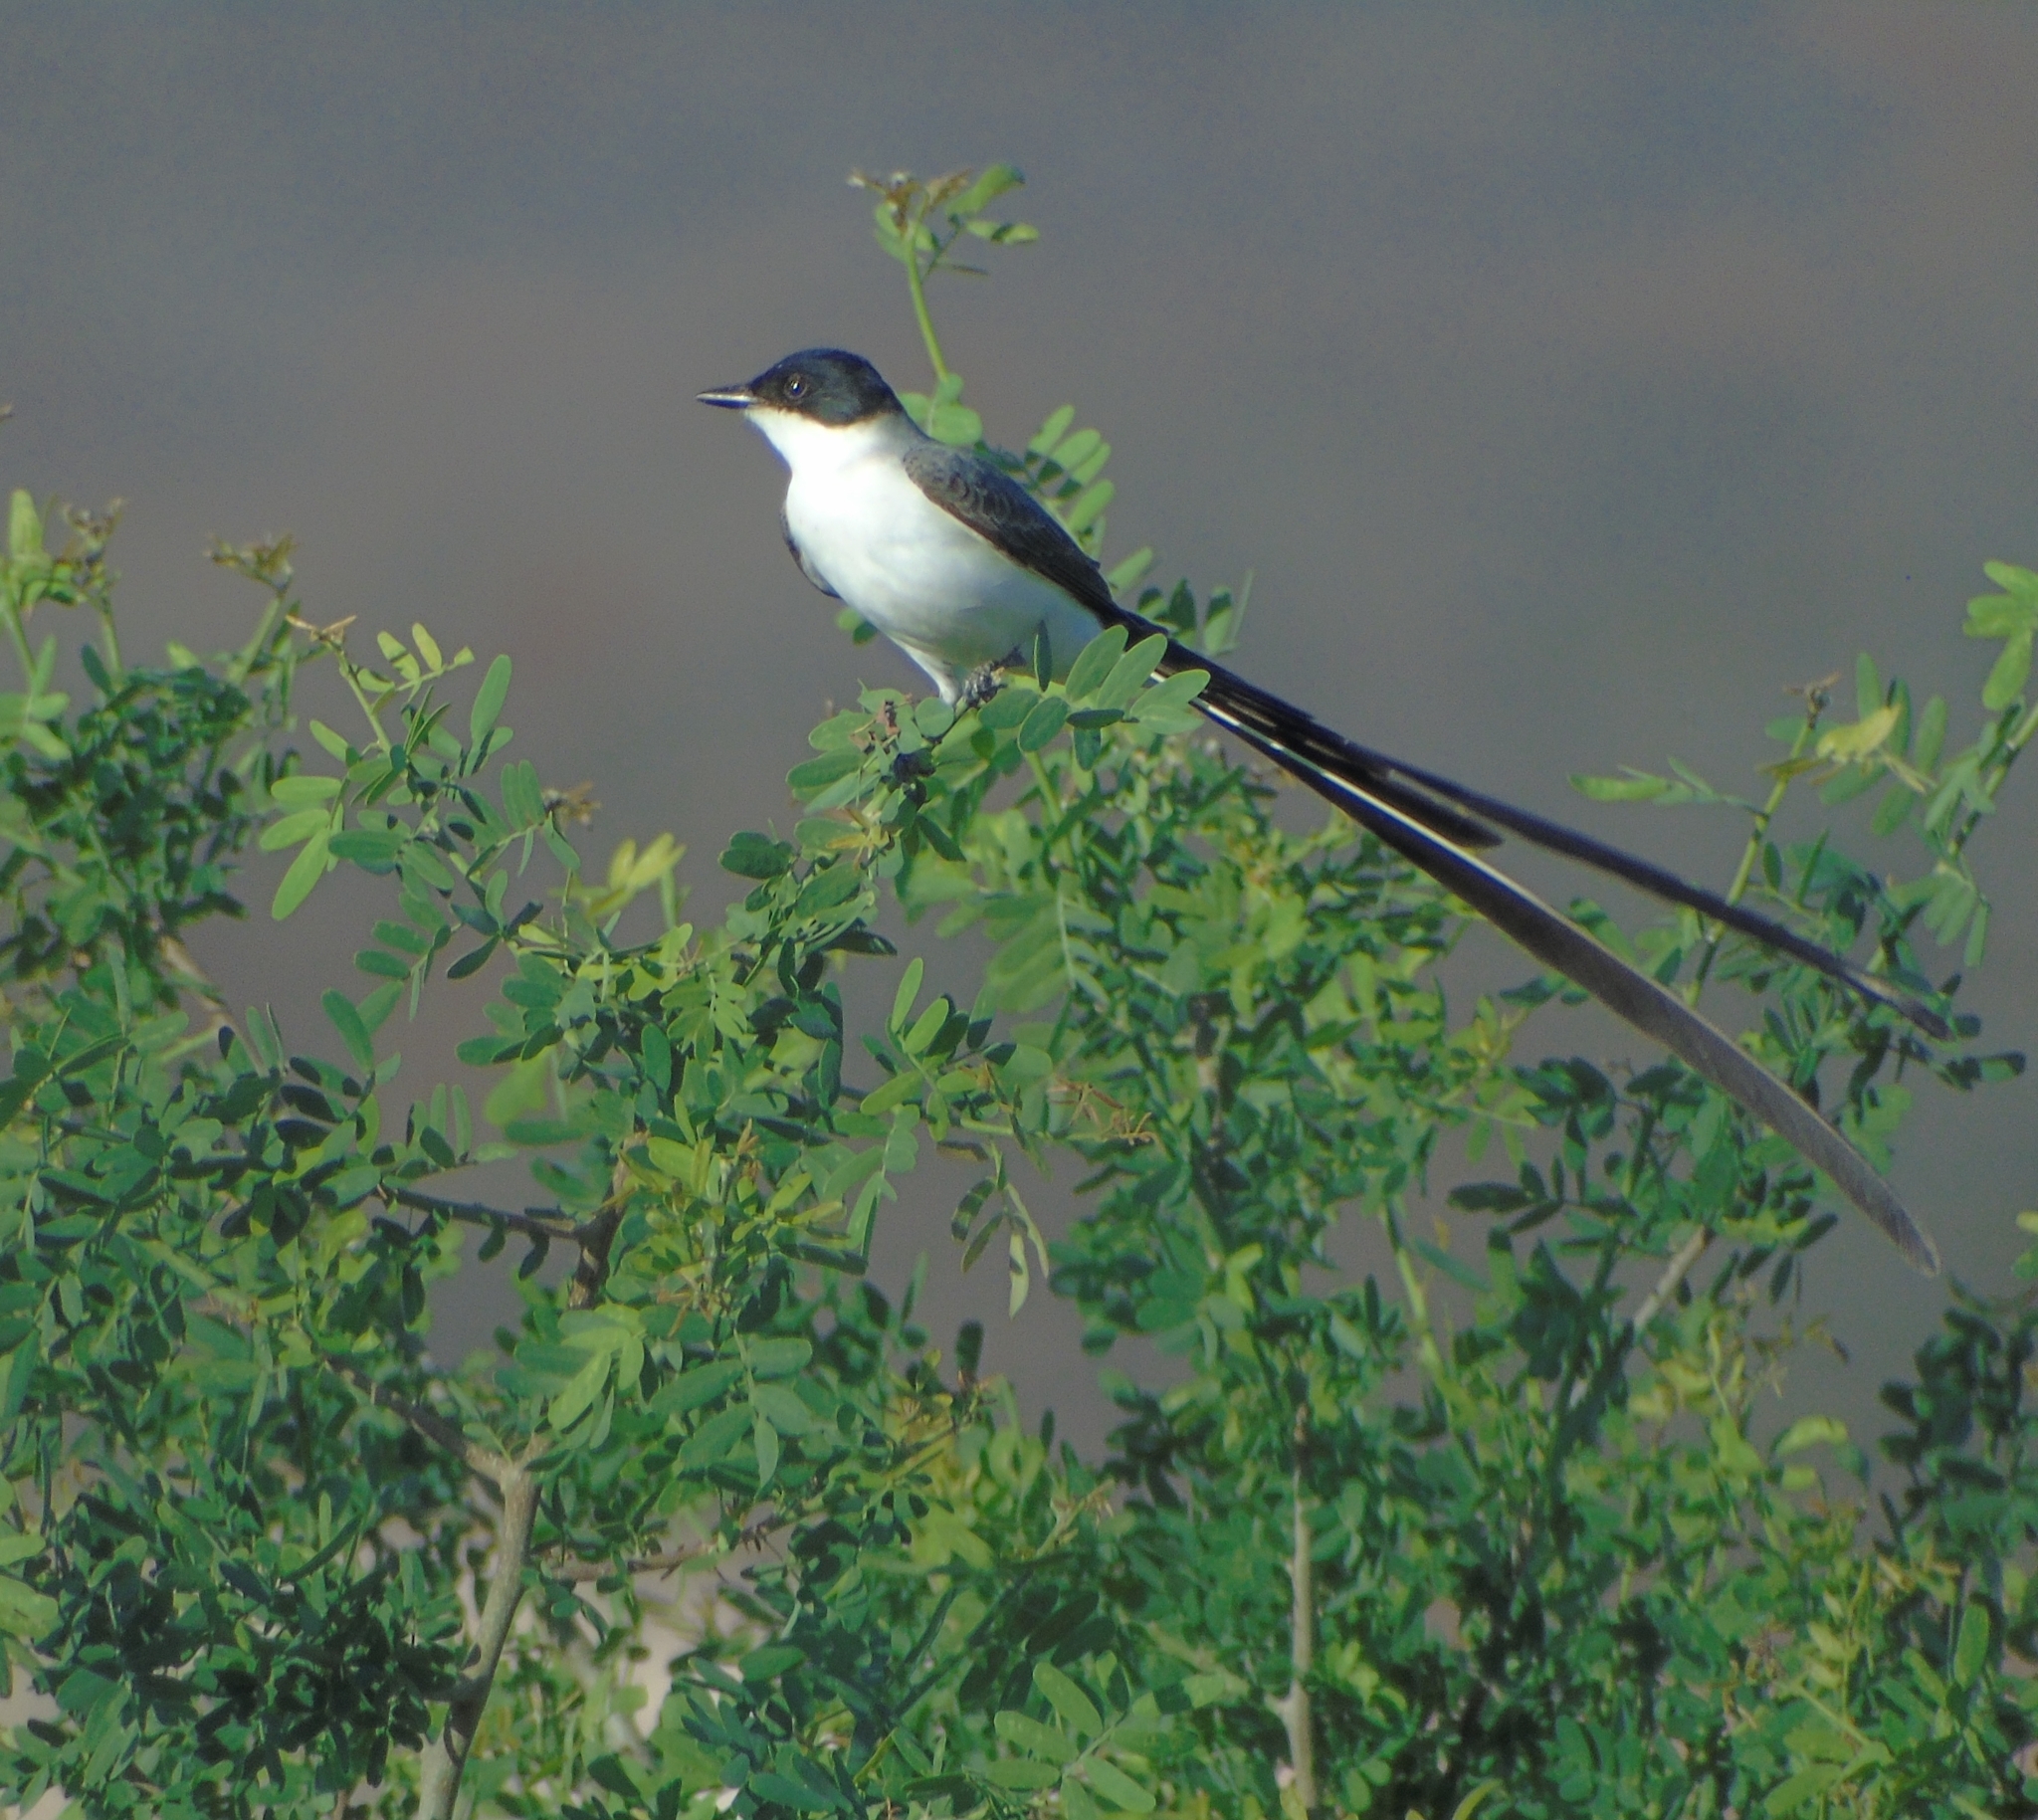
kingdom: Animalia
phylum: Chordata
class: Aves
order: Passeriformes
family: Tyrannidae
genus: Tyrannus
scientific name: Tyrannus savana
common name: Fork-tailed flycatcher
